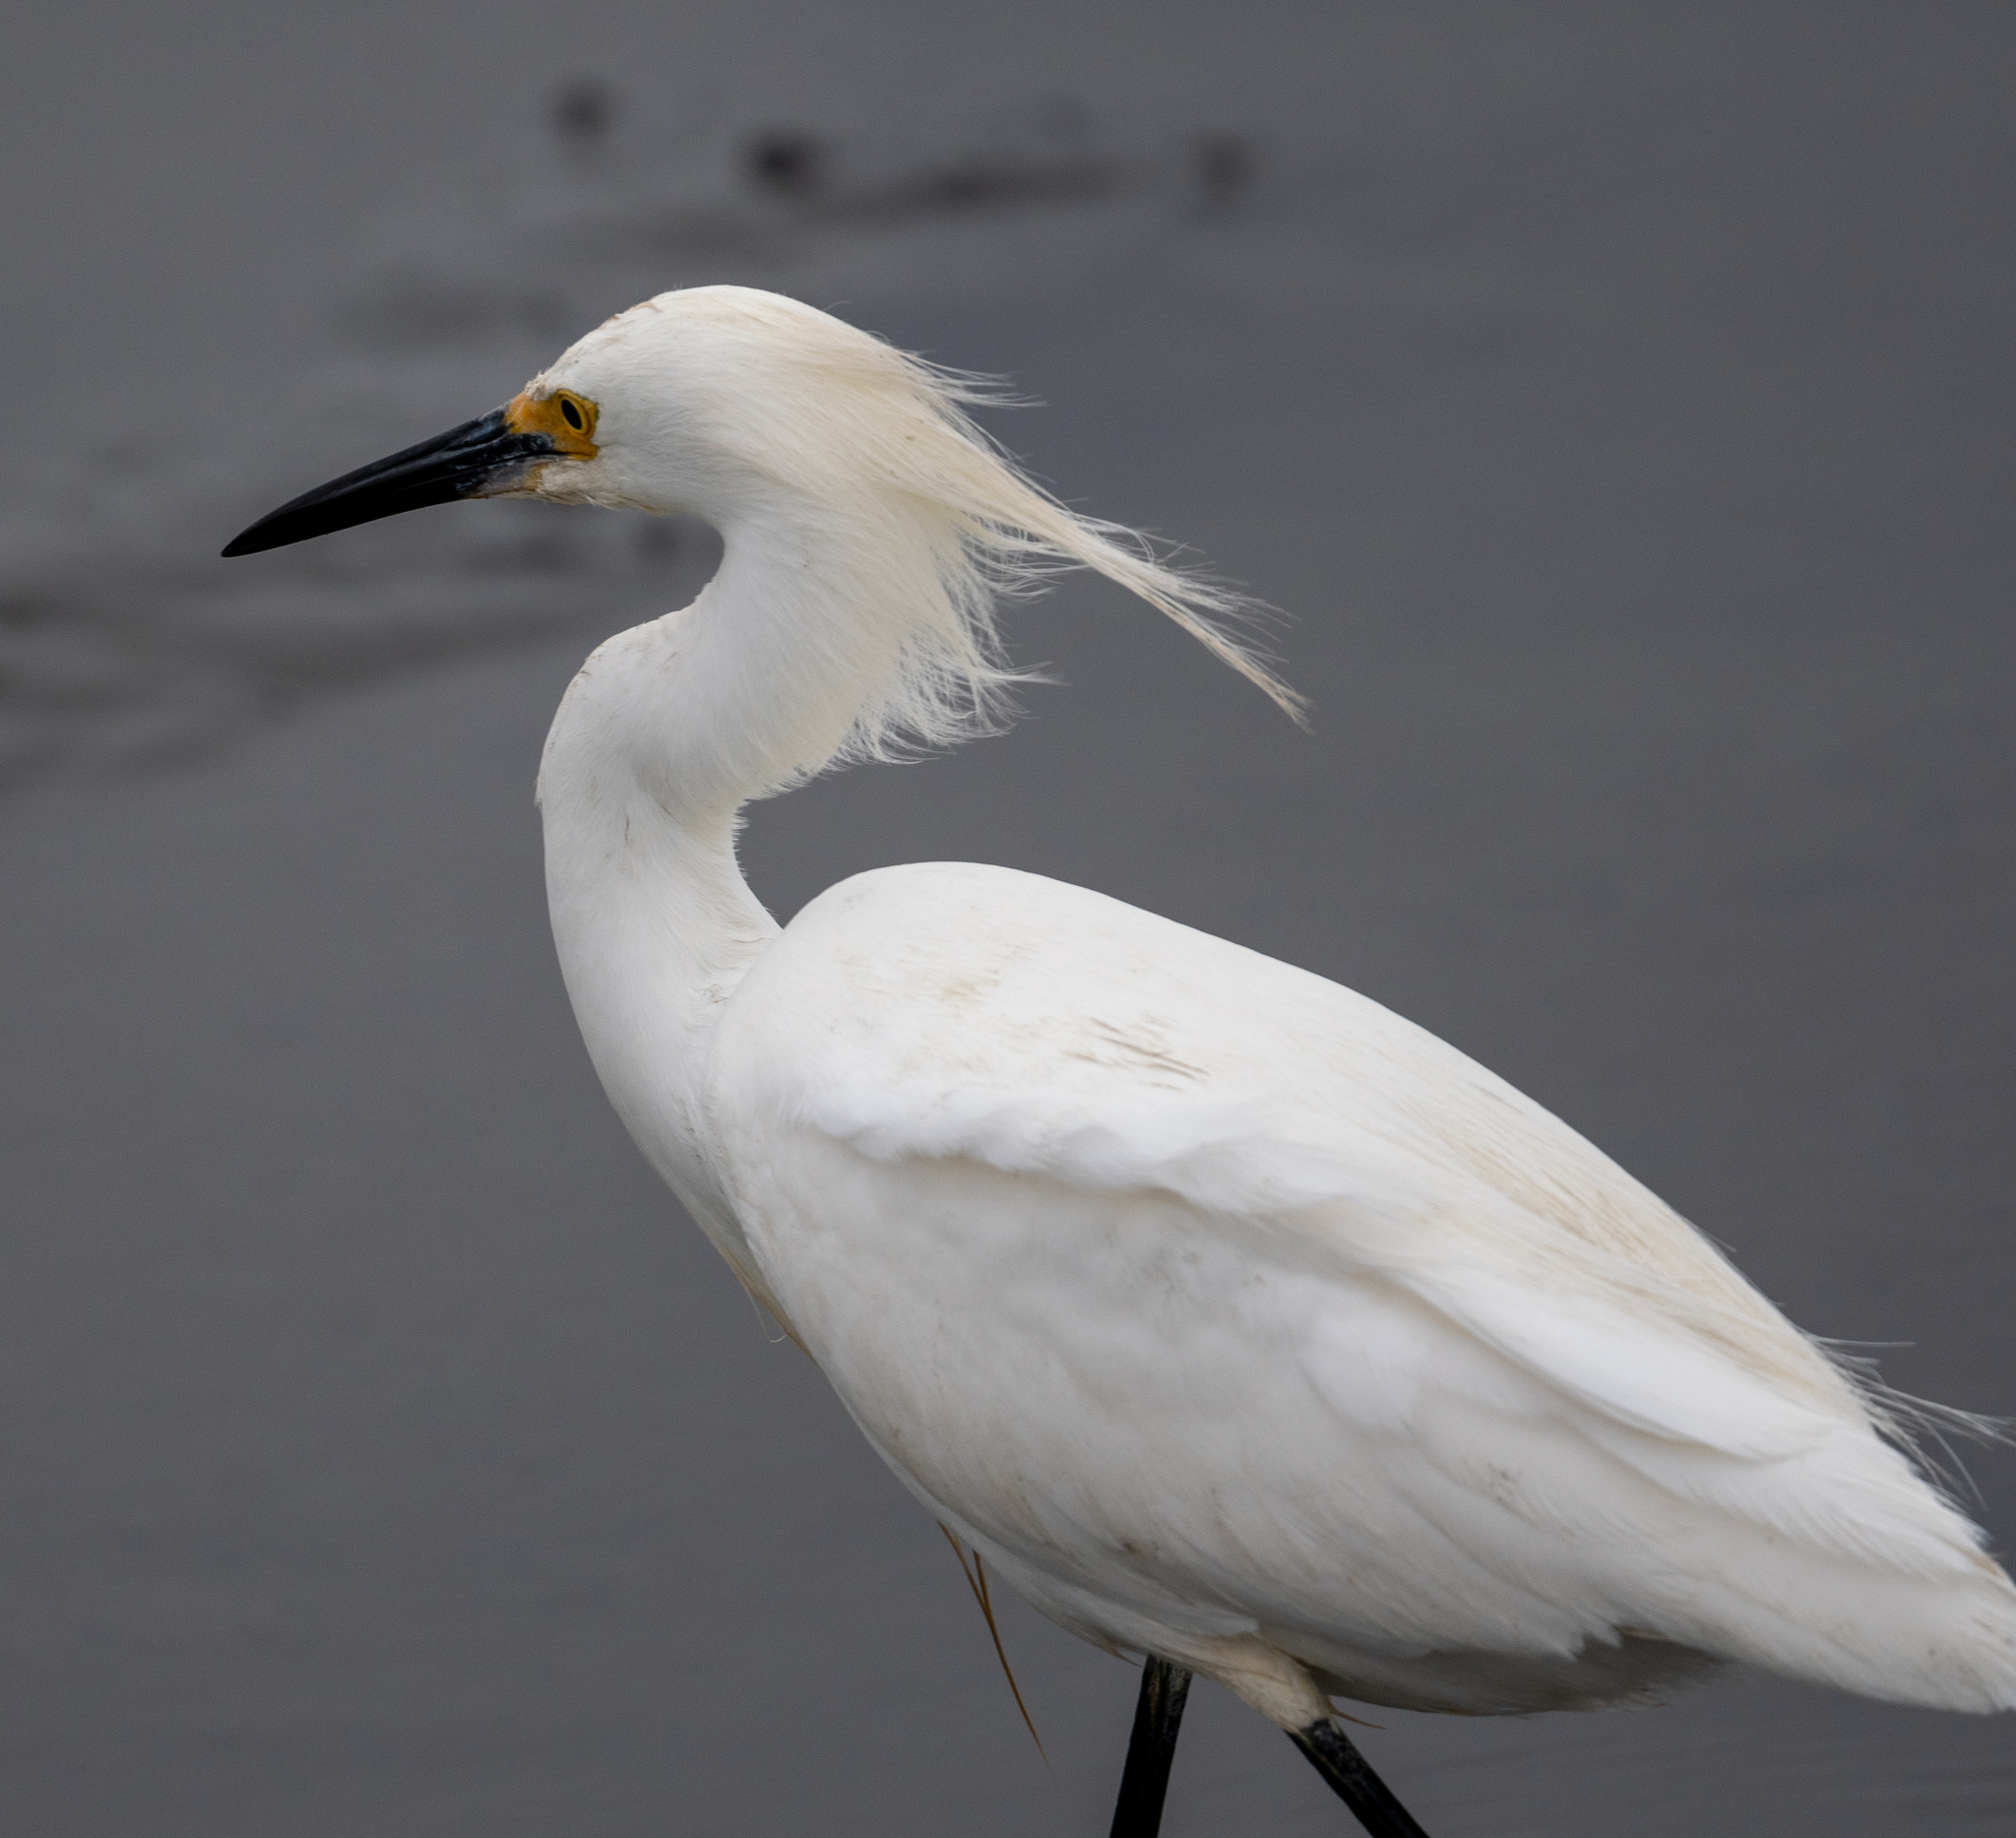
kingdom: Animalia
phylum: Chordata
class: Aves
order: Pelecaniformes
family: Ardeidae
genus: Egretta
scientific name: Egretta thula
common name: Snowy egret
